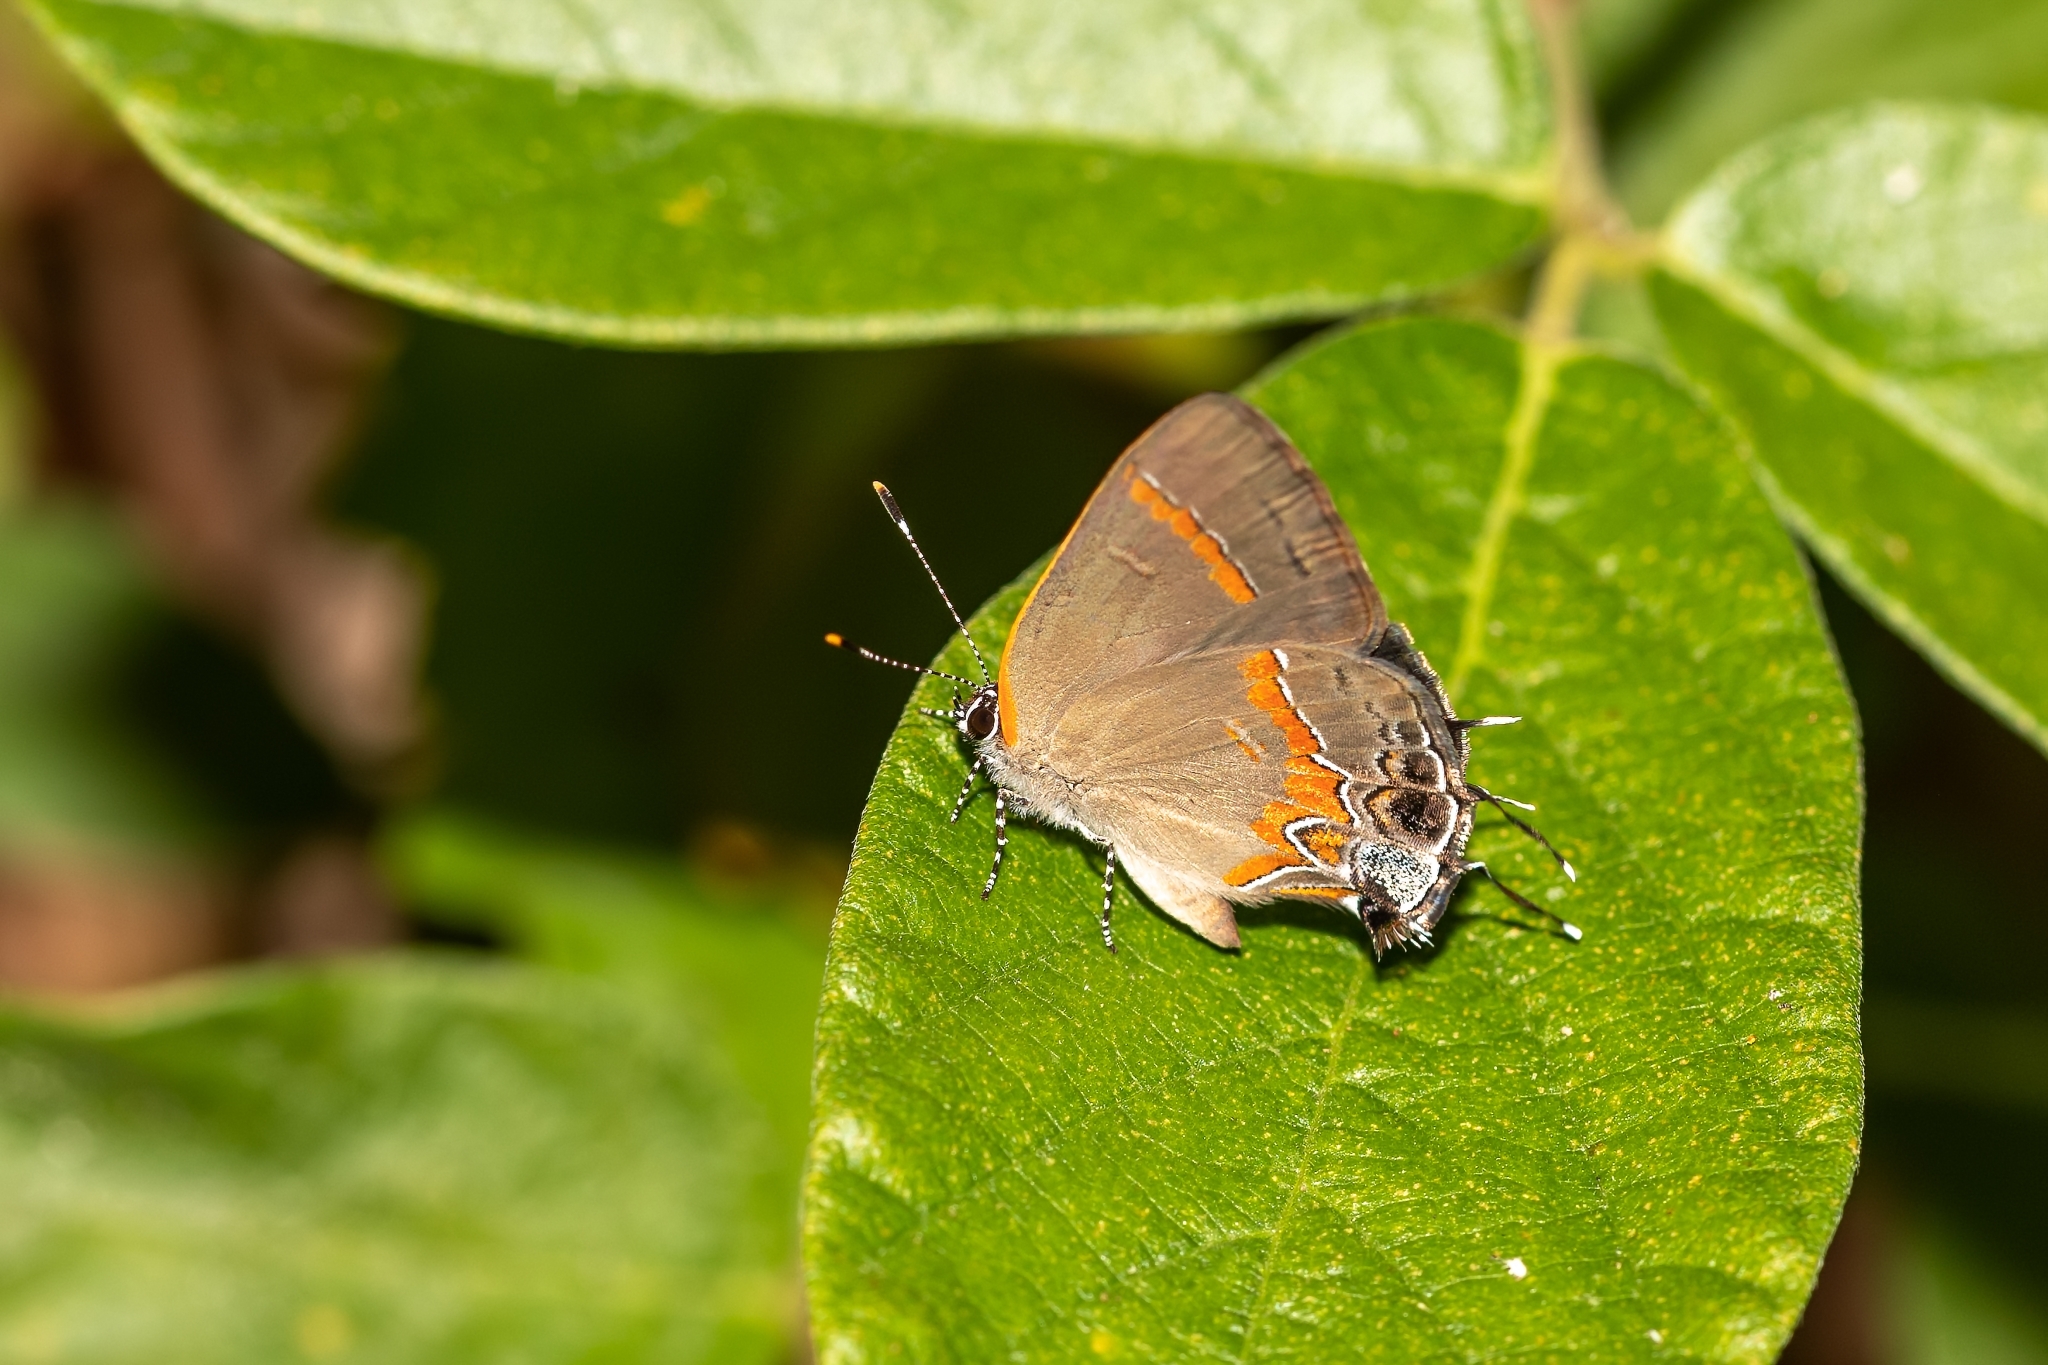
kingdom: Animalia
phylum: Arthropoda
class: Insecta
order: Lepidoptera
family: Lycaenidae
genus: Calycopis
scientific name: Calycopis cecrops
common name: Red-banded hairstreak
